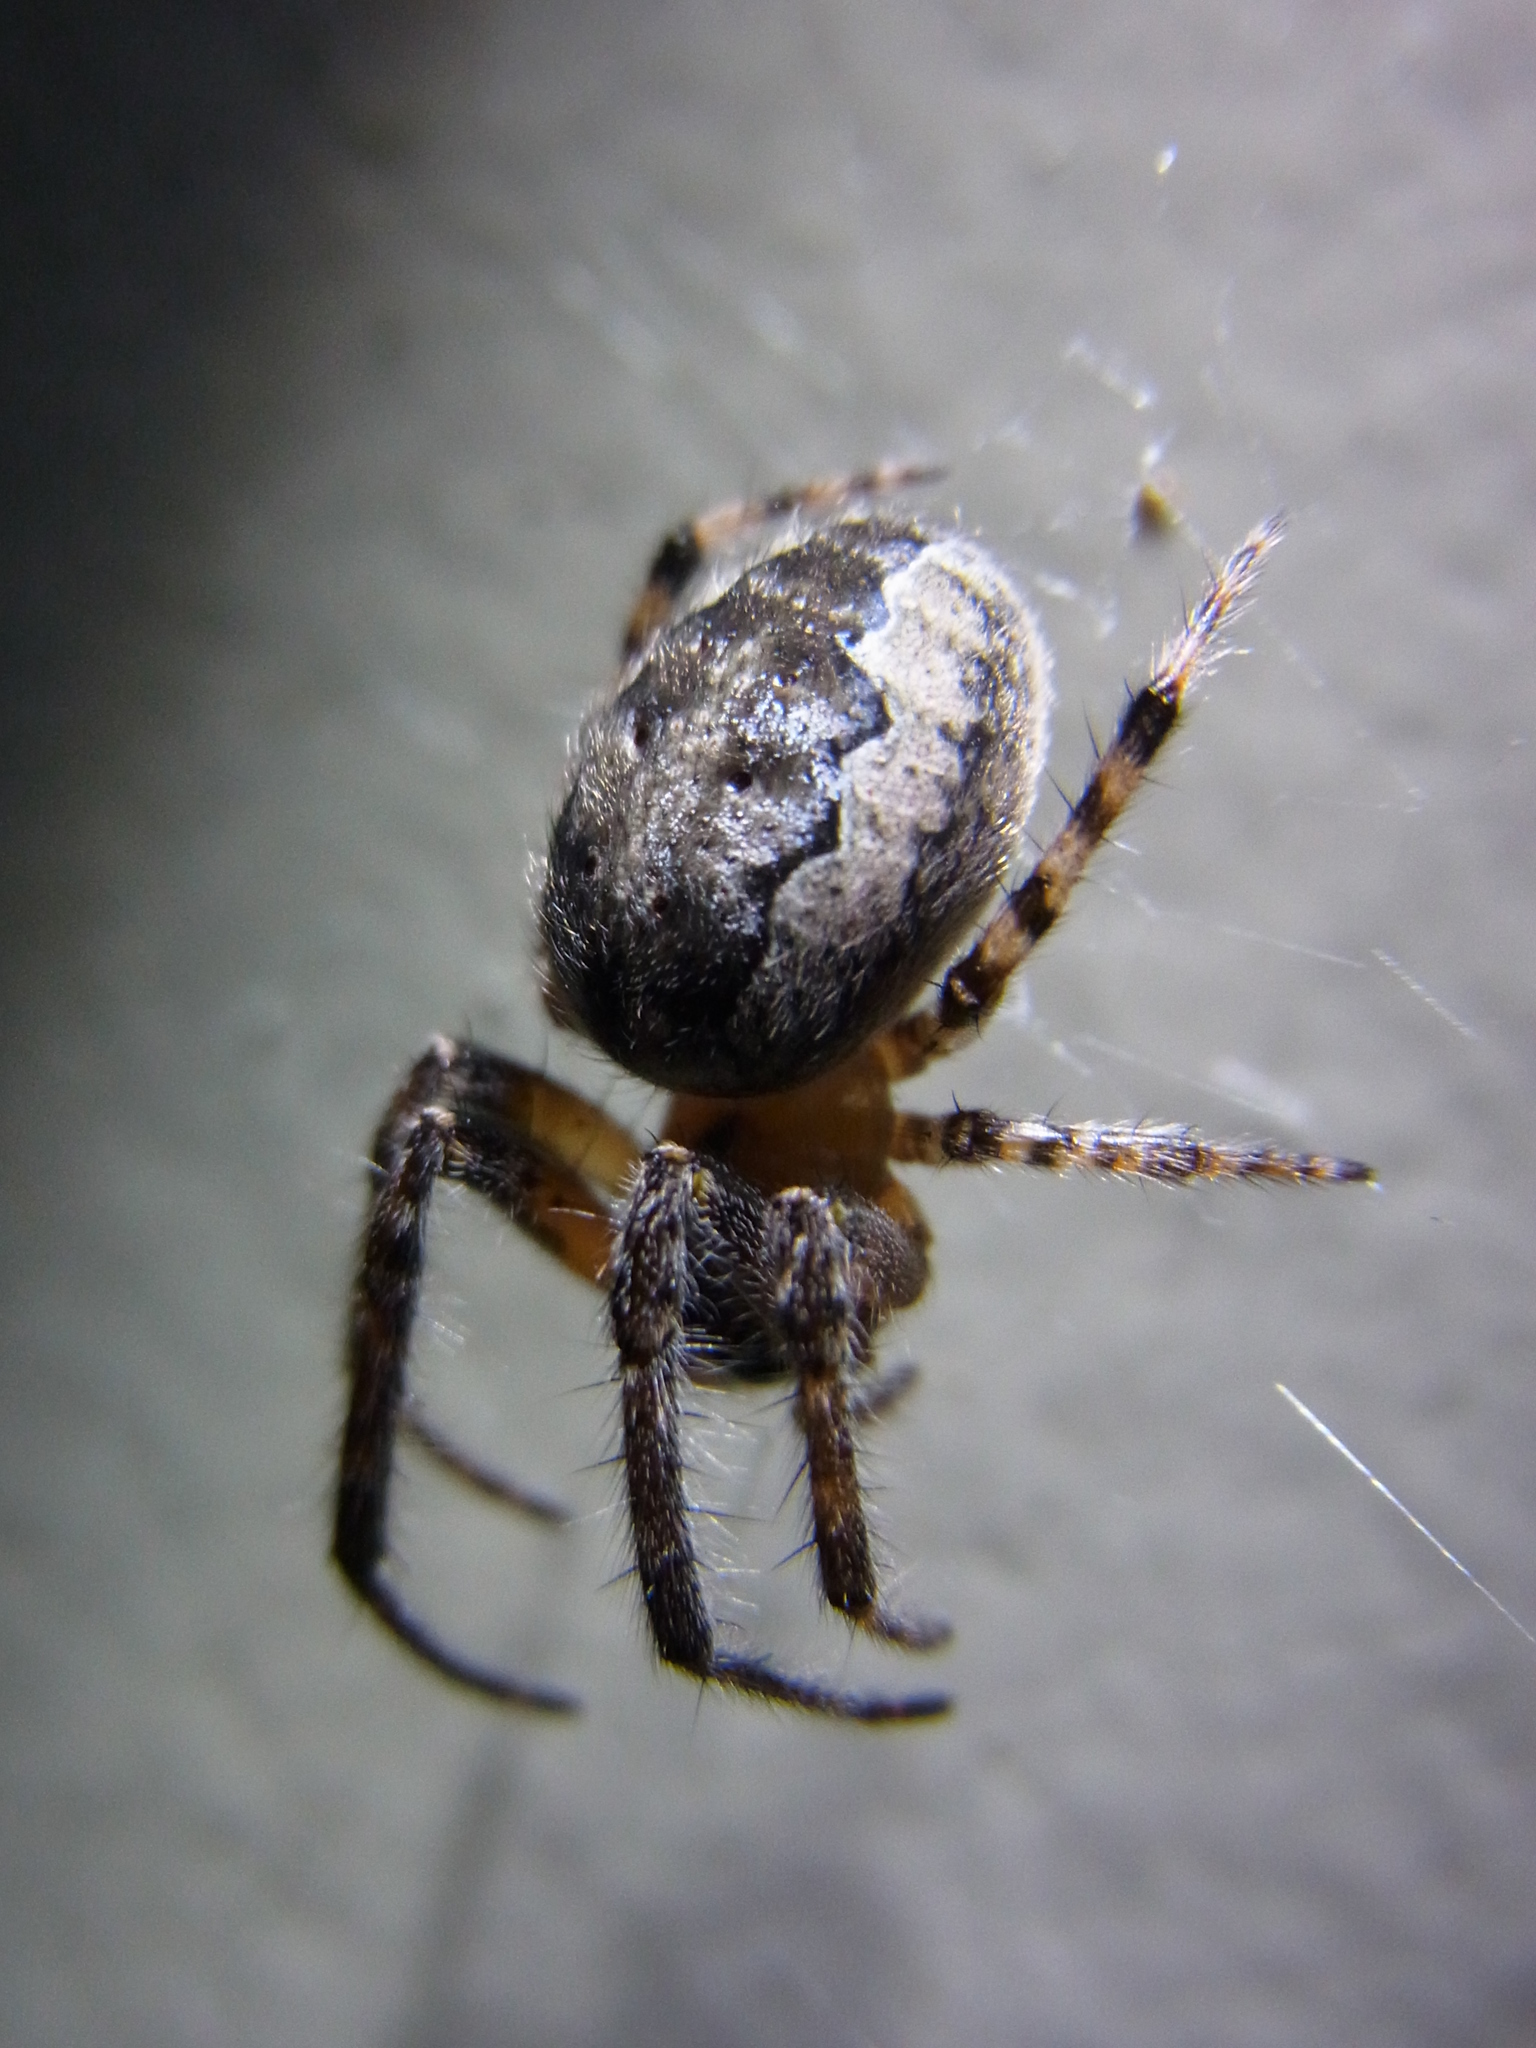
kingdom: Animalia
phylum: Arthropoda
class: Arachnida
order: Araneae
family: Araneidae
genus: Yaginumia
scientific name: Yaginumia sia
